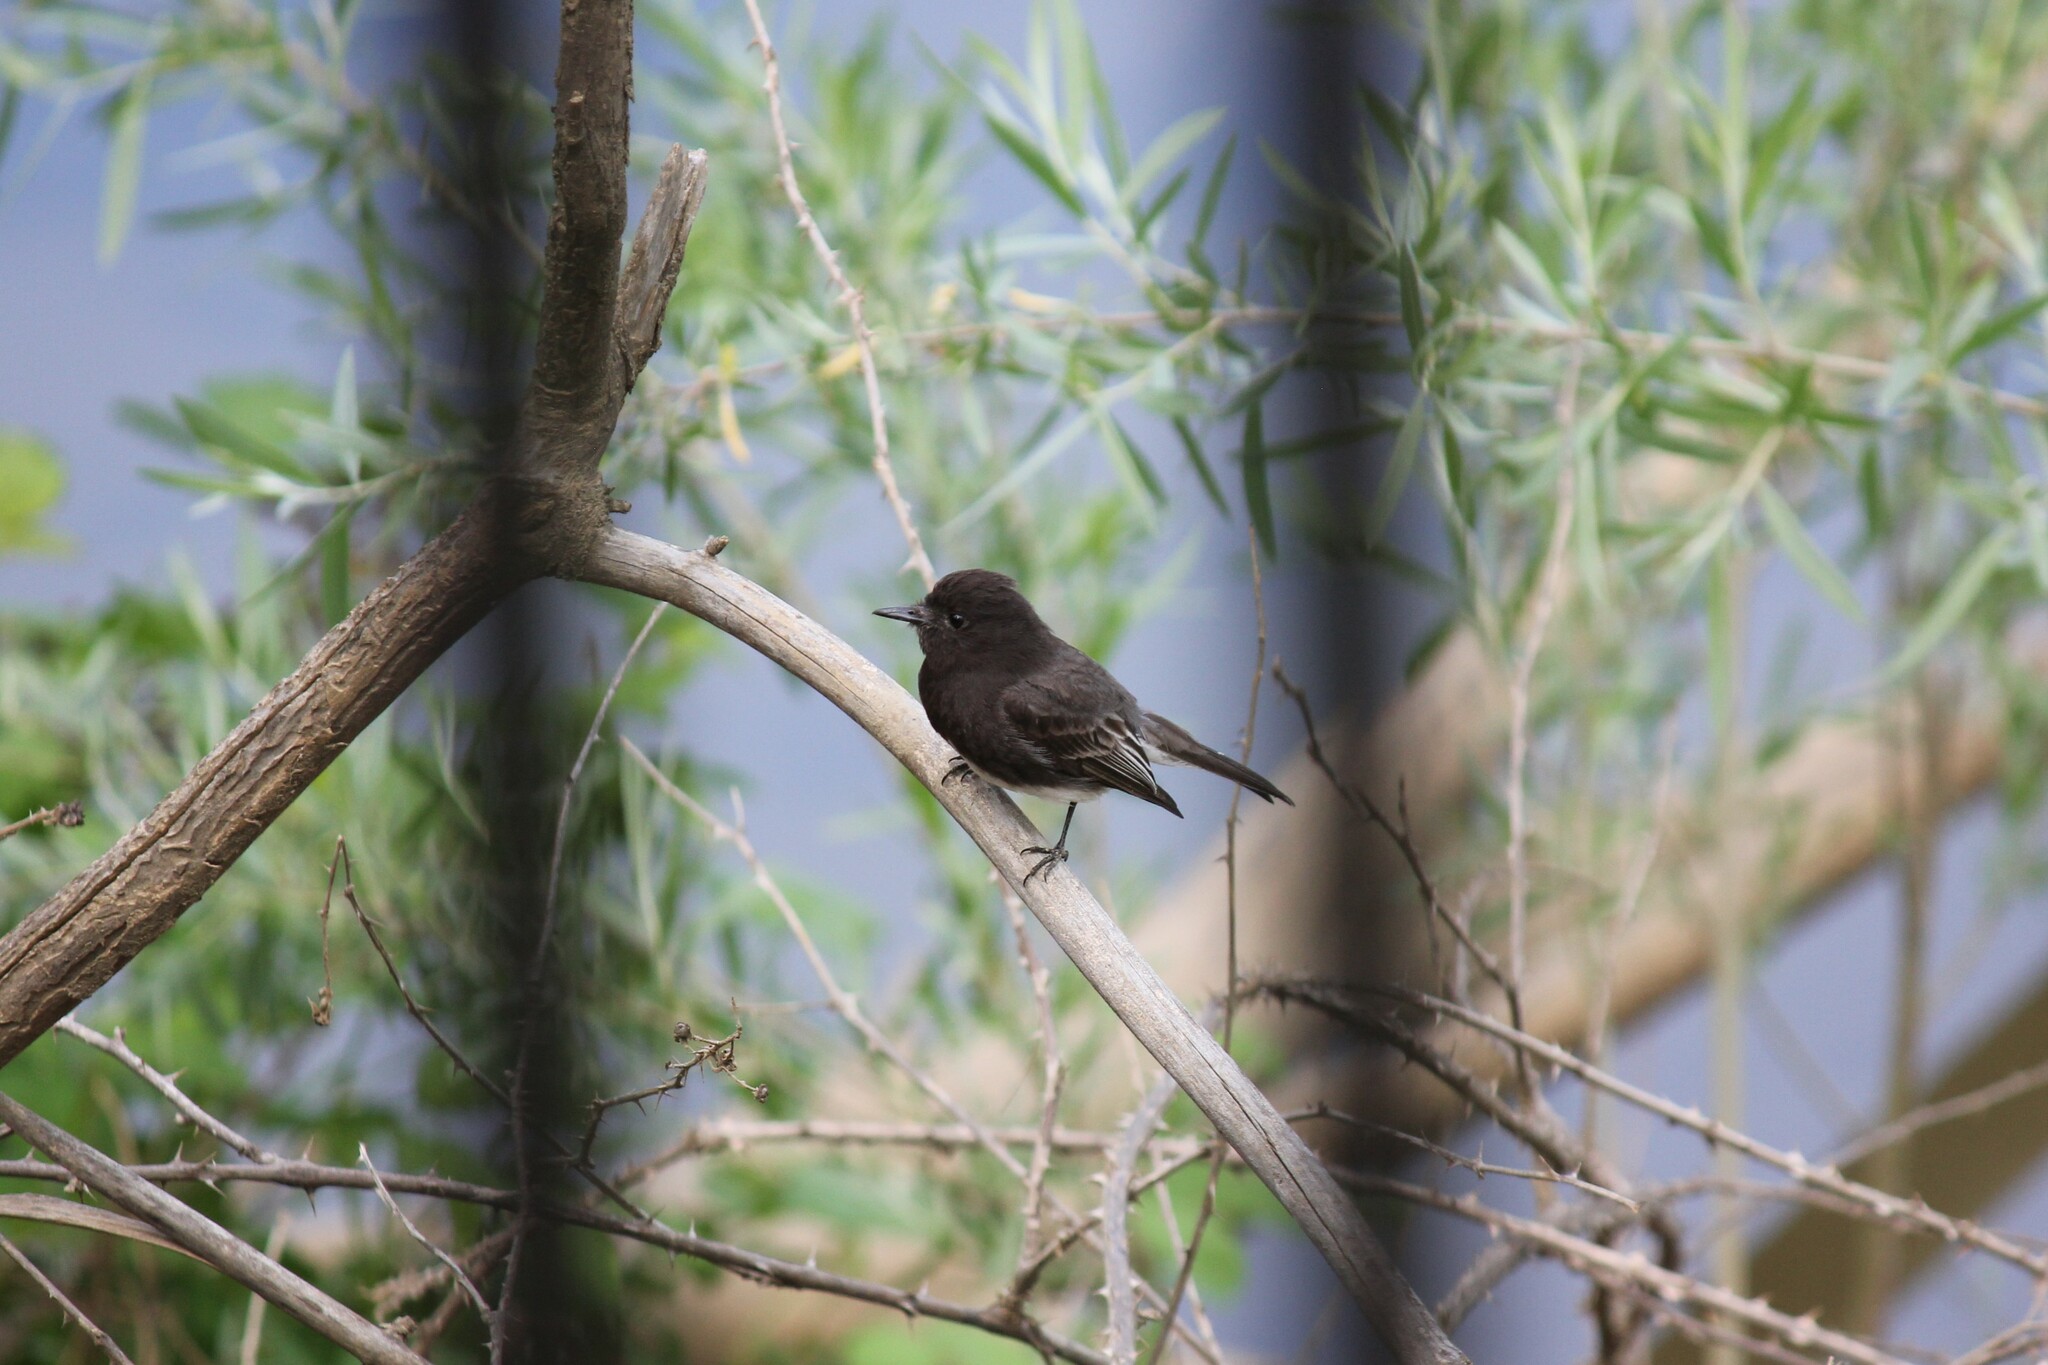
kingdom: Animalia
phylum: Chordata
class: Aves
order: Passeriformes
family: Tyrannidae
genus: Sayornis
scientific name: Sayornis nigricans
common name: Black phoebe
